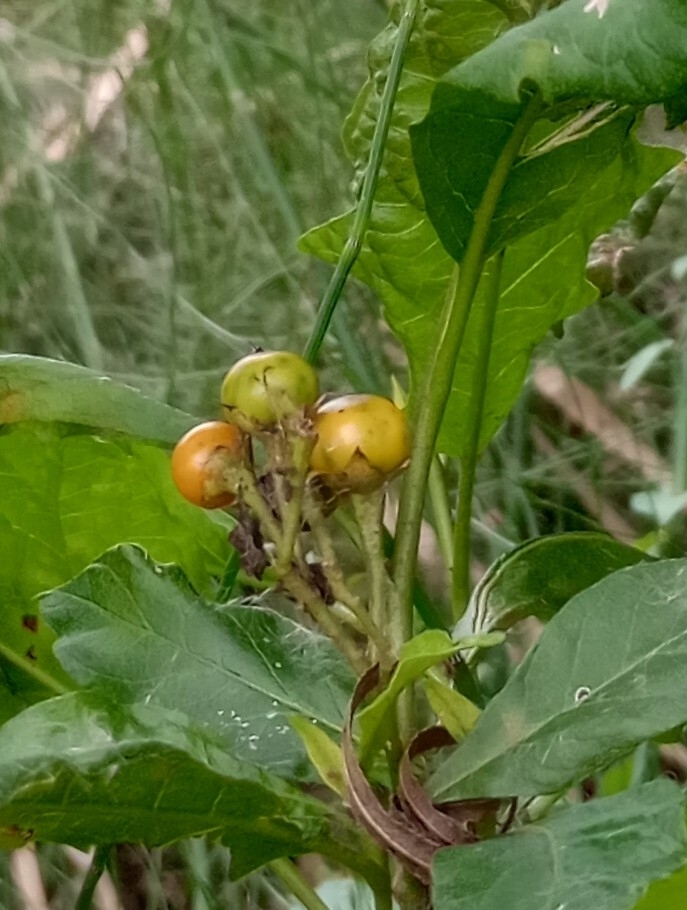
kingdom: Plantae
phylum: Tracheophyta
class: Magnoliopsida
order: Solanales
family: Solanaceae
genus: Solanum
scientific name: Solanum bonariense
